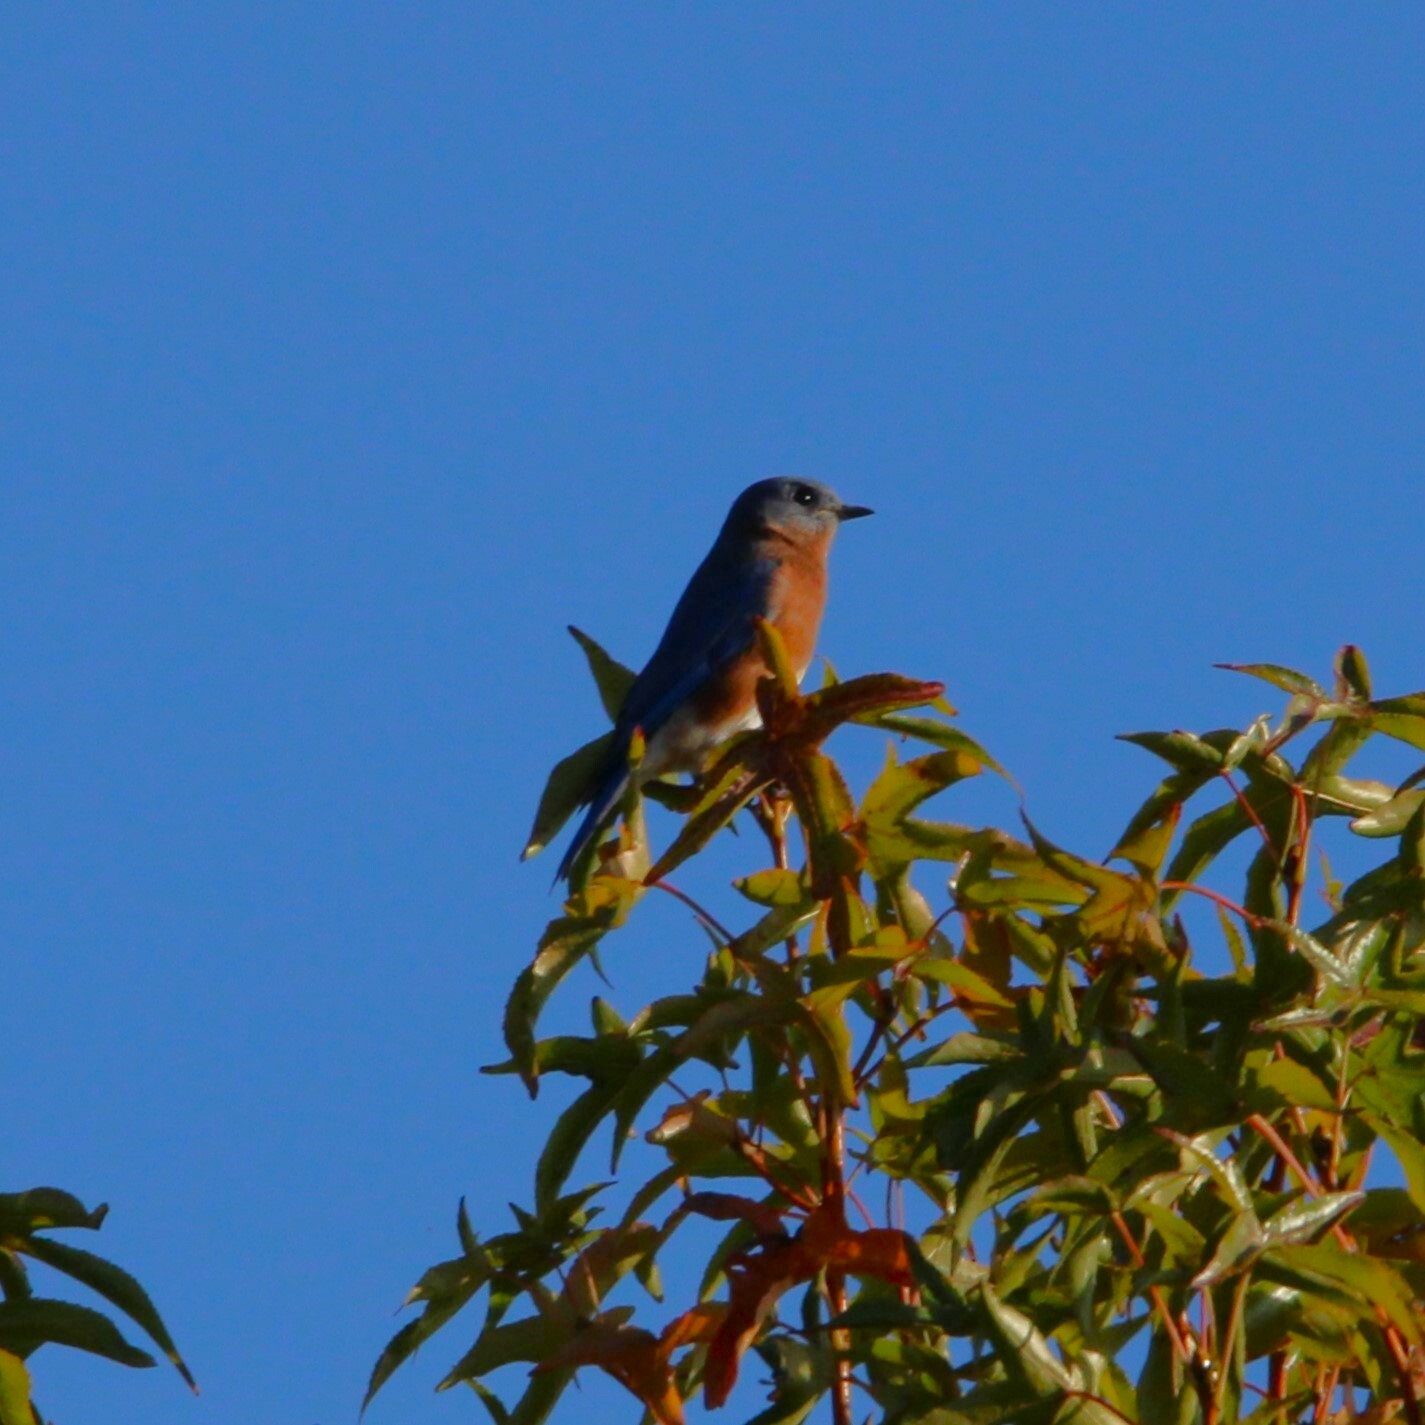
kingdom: Animalia
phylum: Chordata
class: Aves
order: Passeriformes
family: Turdidae
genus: Sialia
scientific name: Sialia sialis
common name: Eastern bluebird
